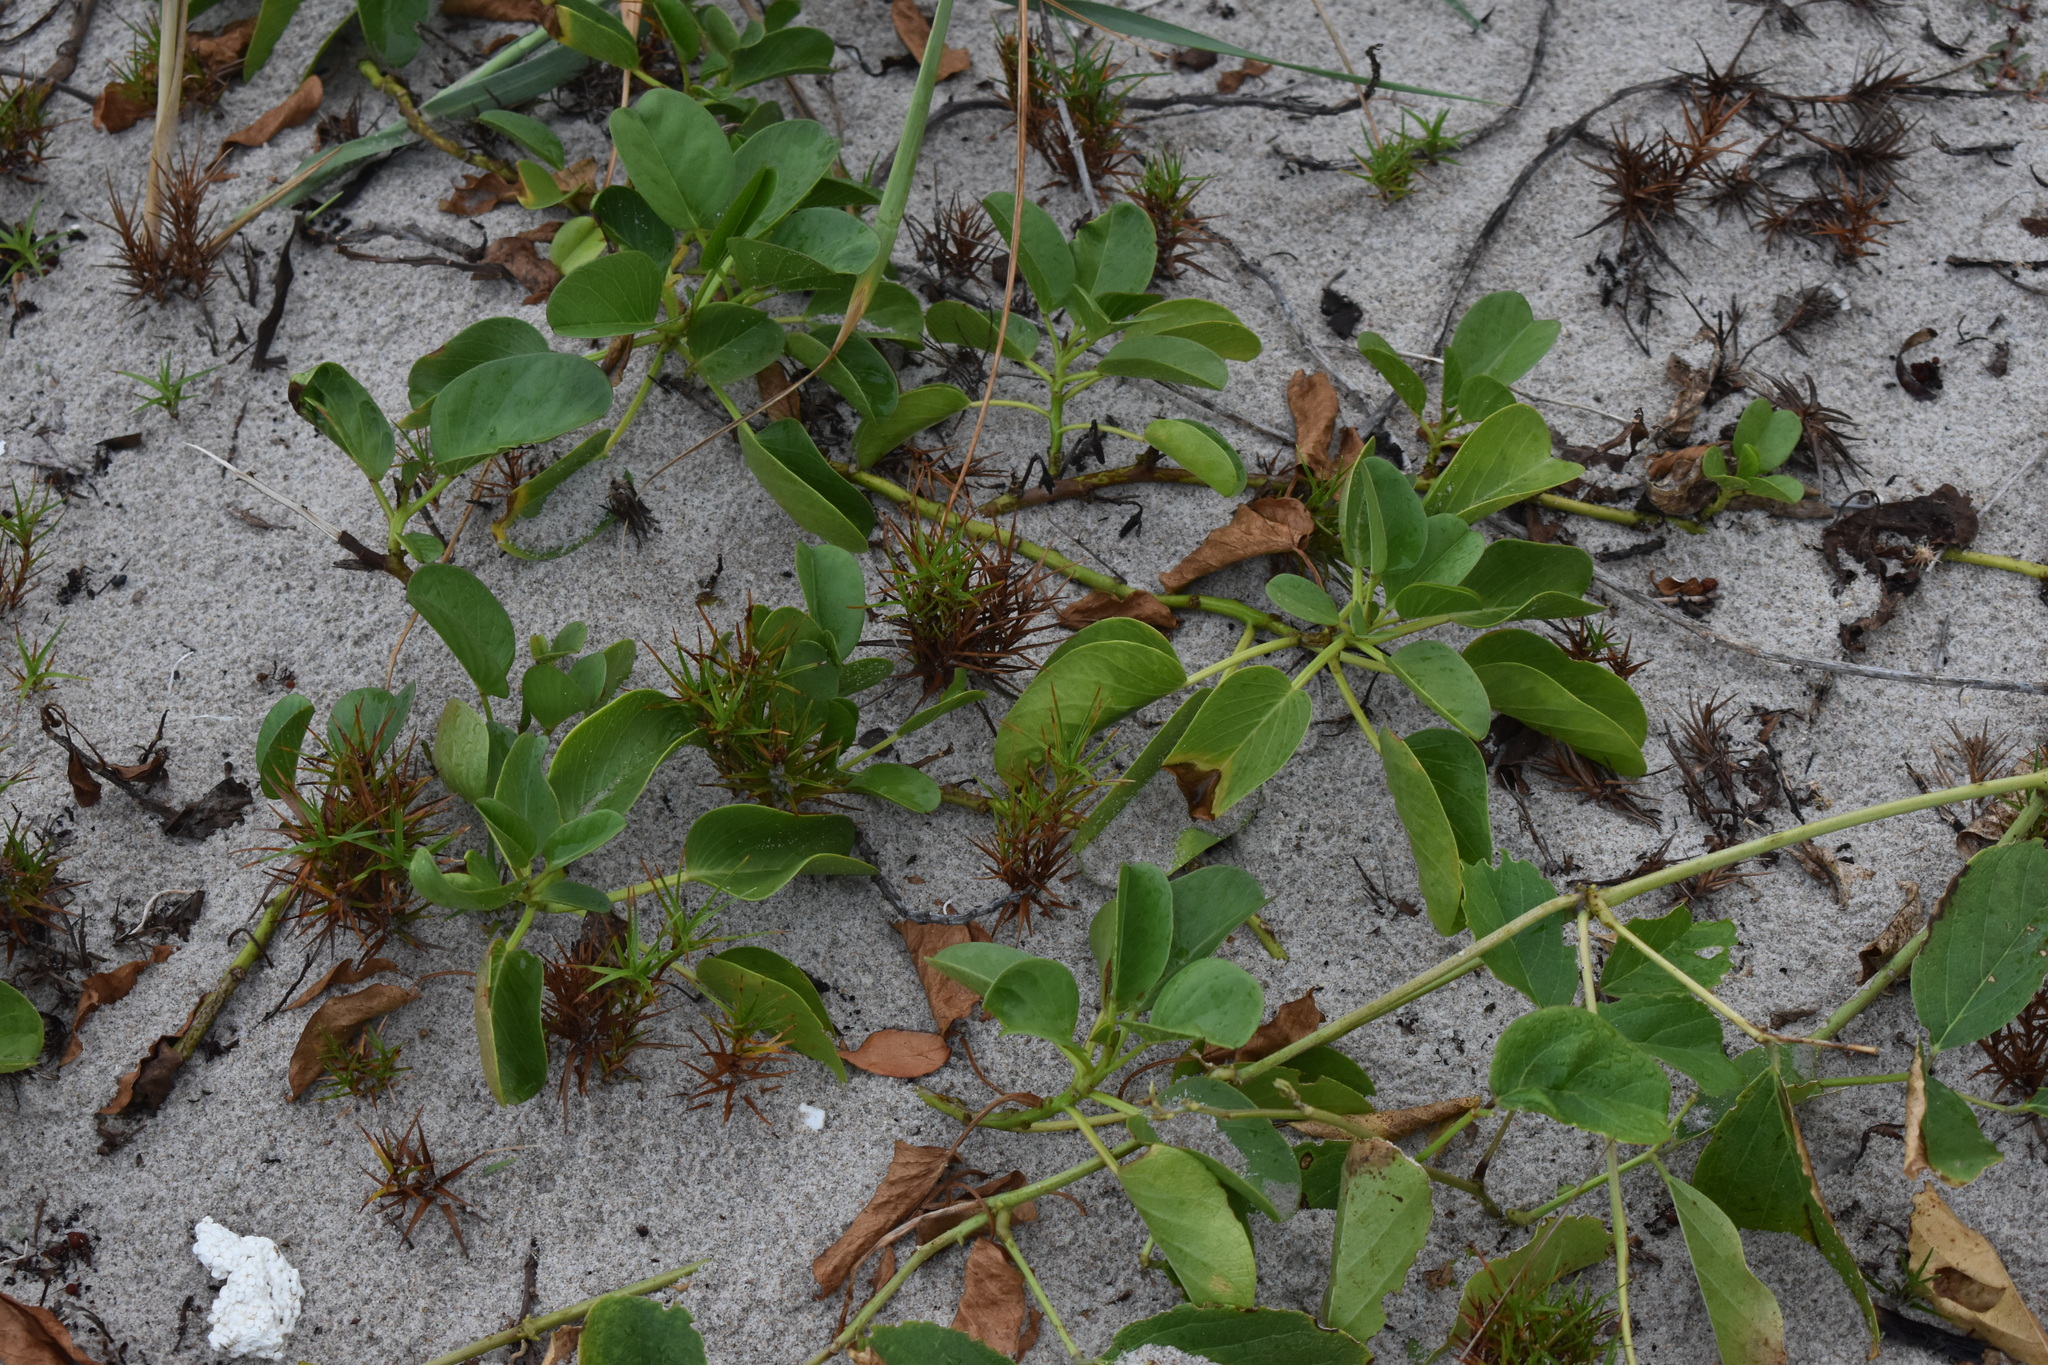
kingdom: Plantae
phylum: Tracheophyta
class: Magnoliopsida
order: Solanales
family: Convolvulaceae
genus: Ipomoea
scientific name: Ipomoea pes-caprae
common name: Beach morning glory
